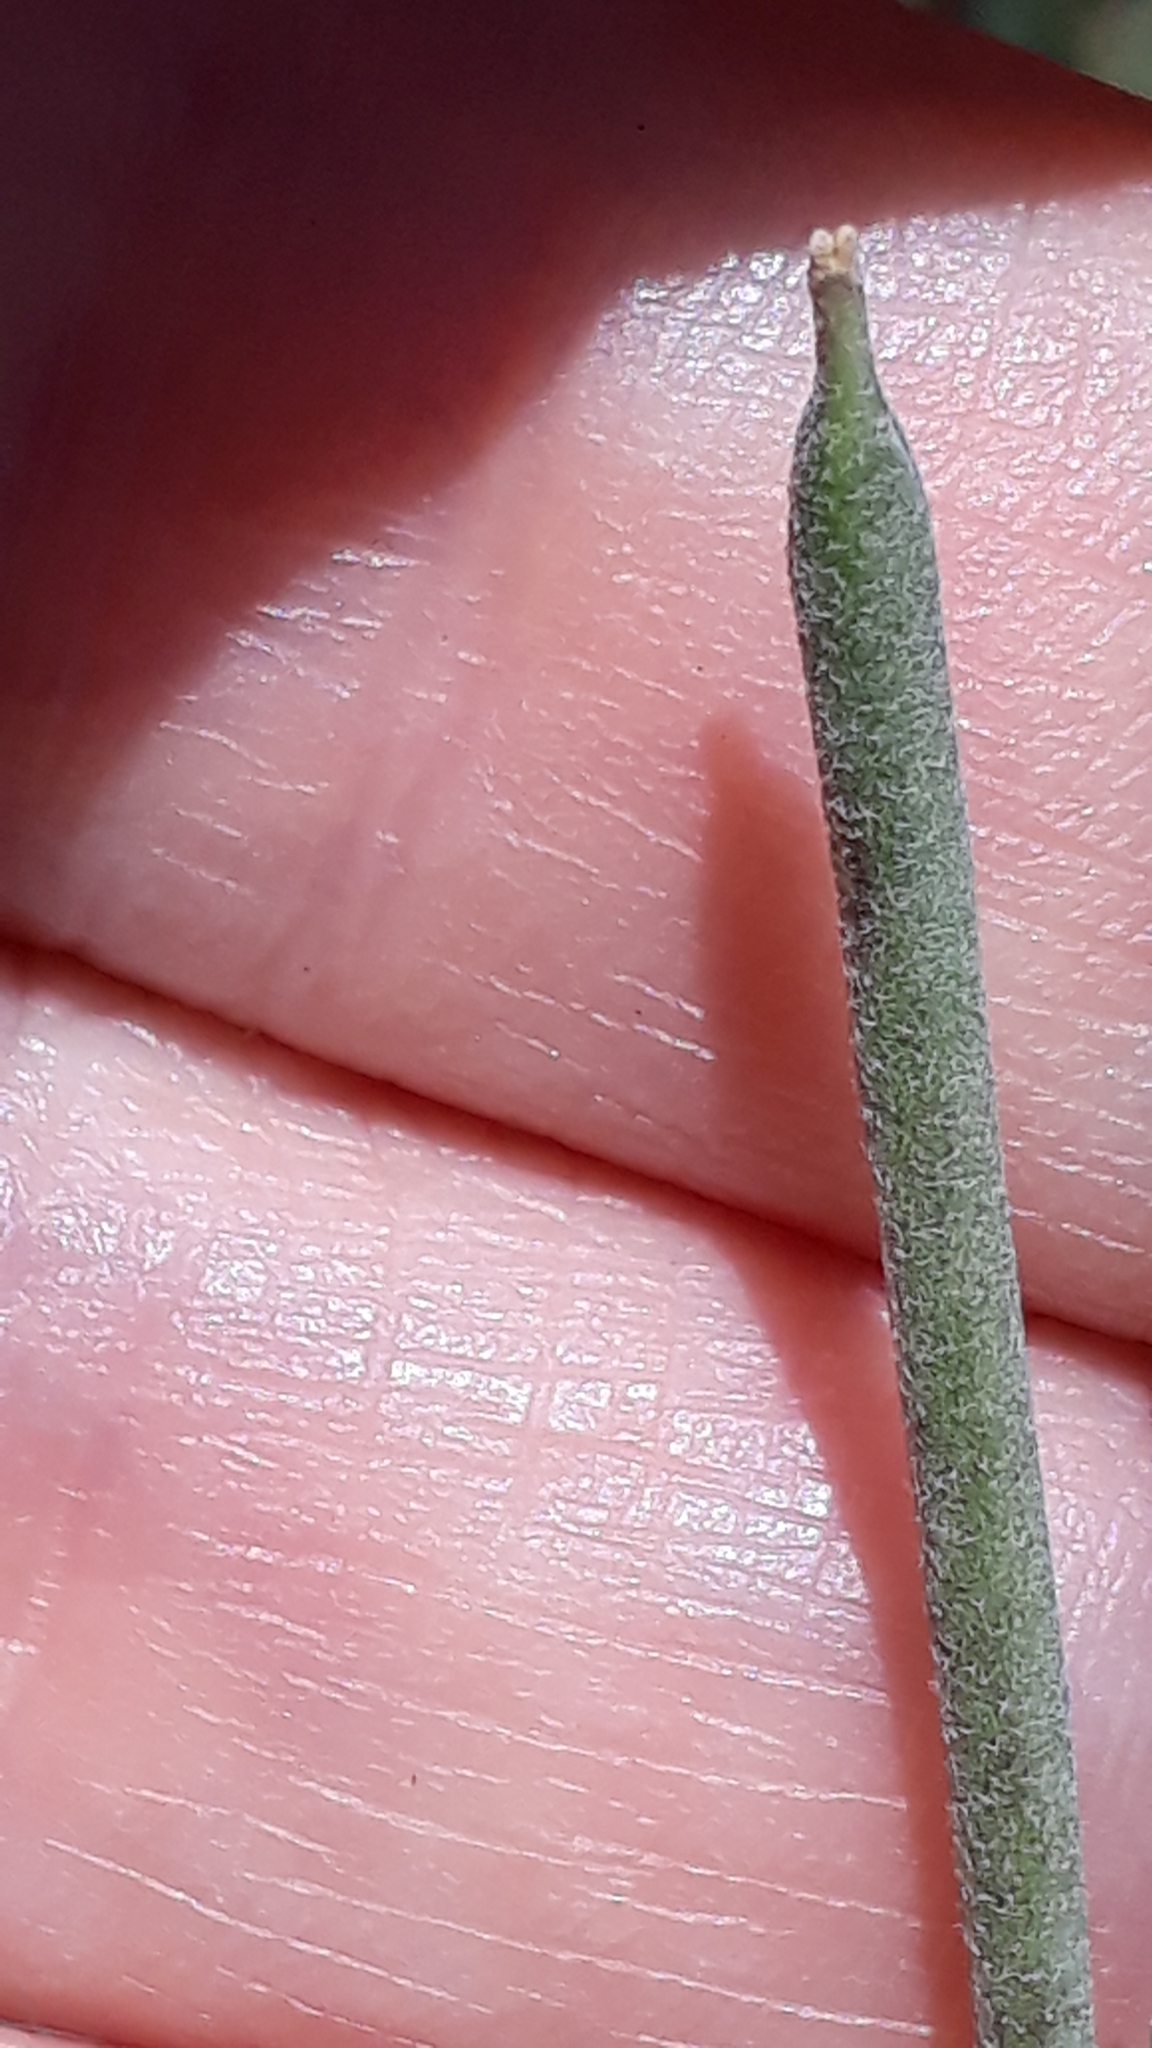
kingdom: Plantae
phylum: Tracheophyta
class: Magnoliopsida
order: Brassicales
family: Brassicaceae
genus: Erysimum
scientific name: Erysimum scoparium
